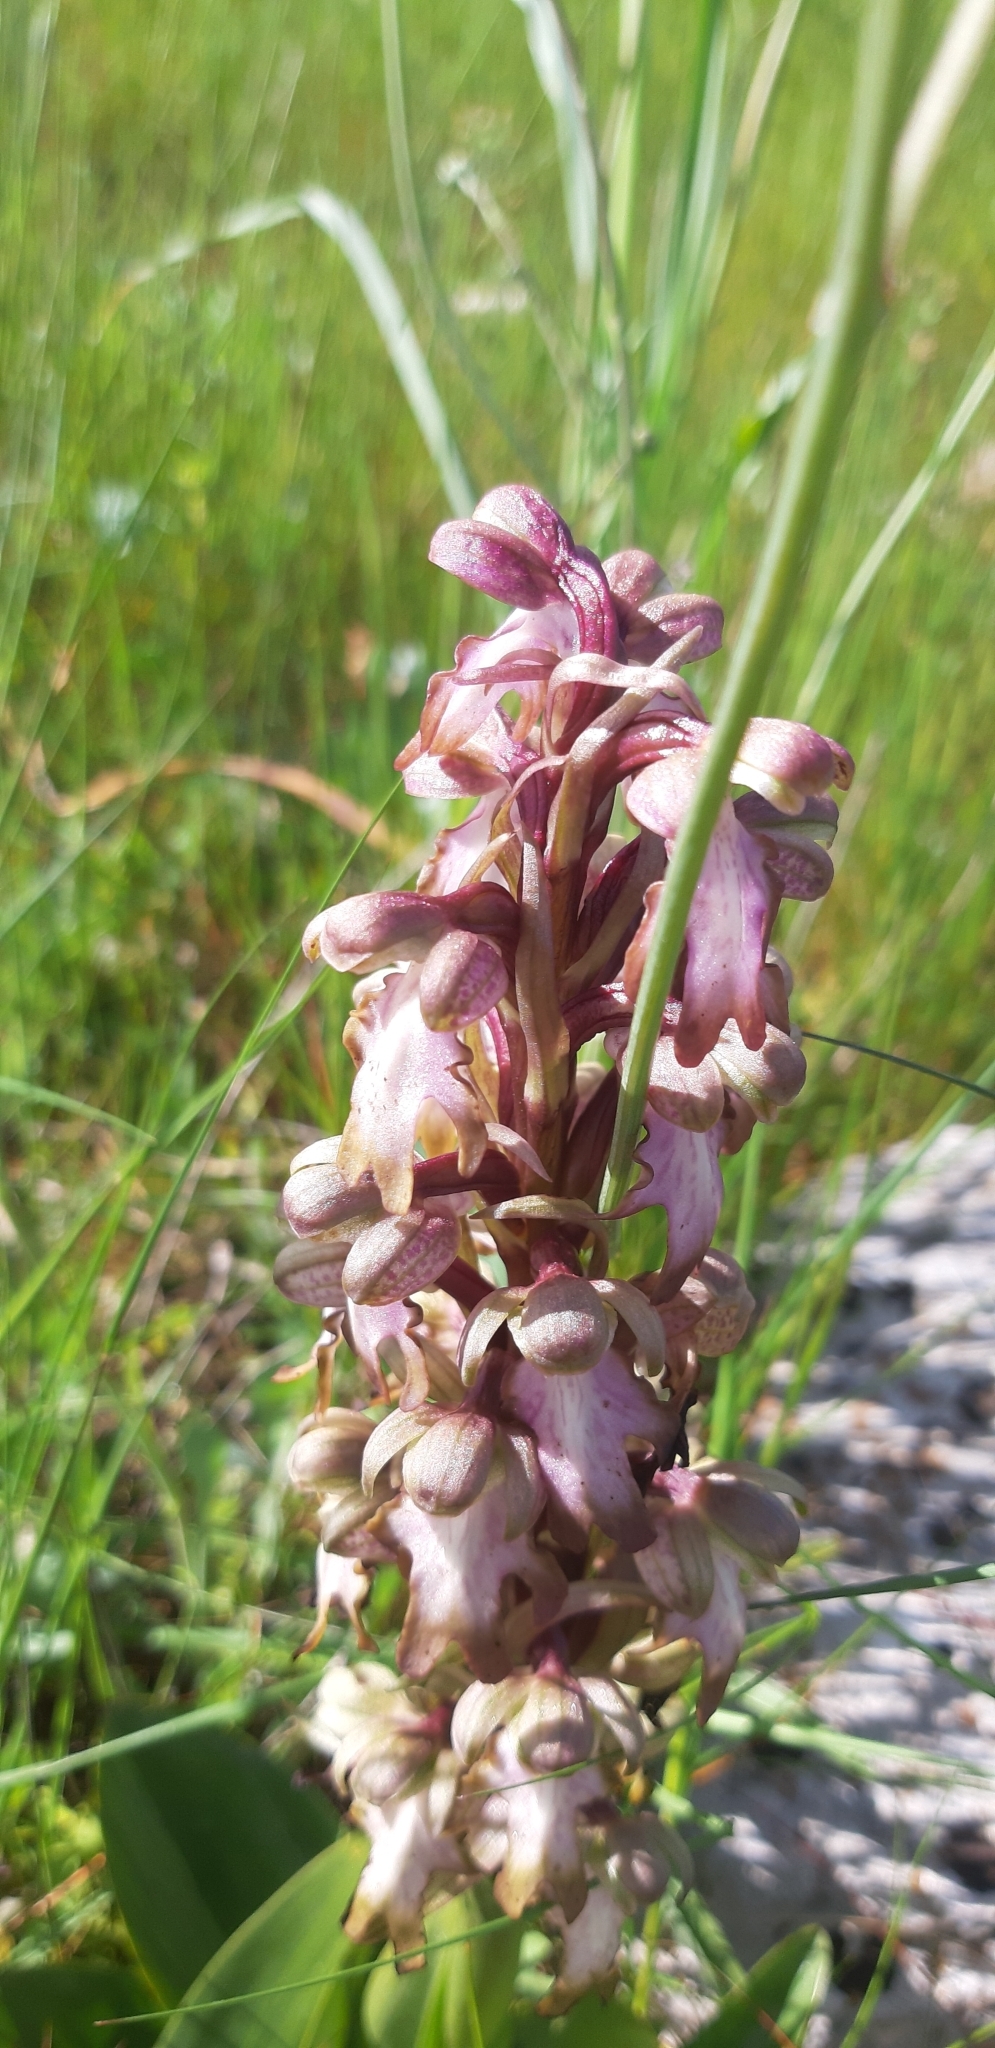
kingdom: Plantae
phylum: Tracheophyta
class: Liliopsida
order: Asparagales
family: Orchidaceae
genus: Himantoglossum
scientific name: Himantoglossum robertianum
